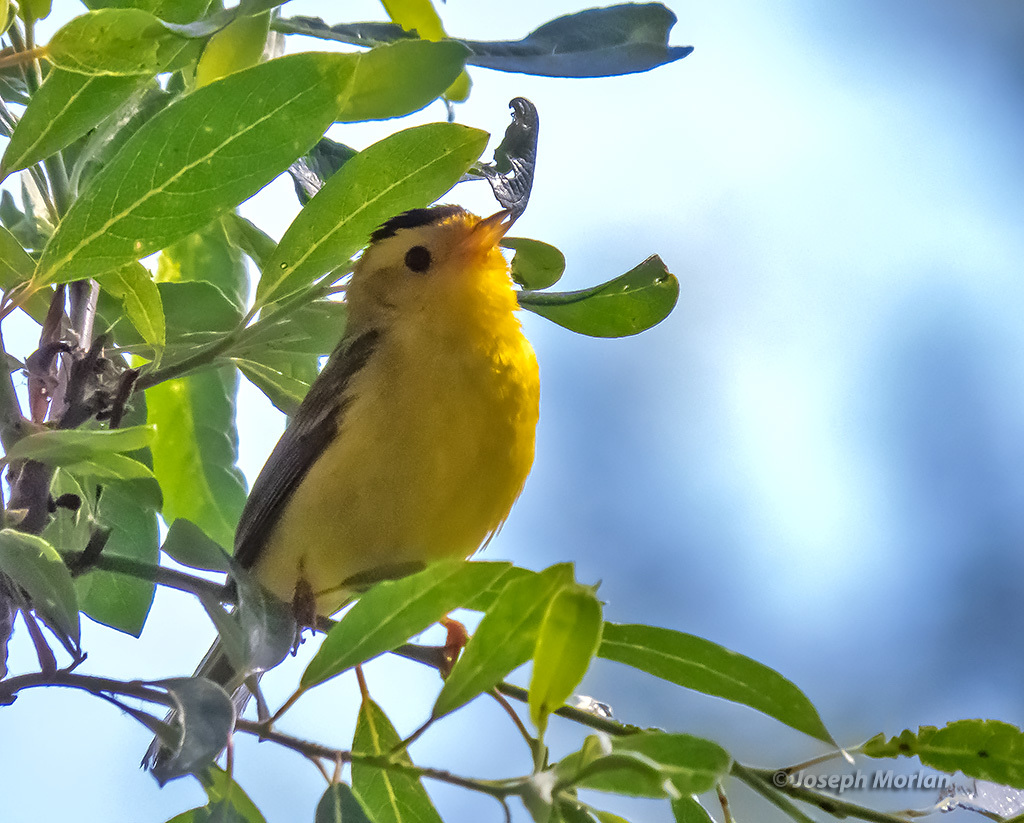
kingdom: Animalia
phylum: Chordata
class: Aves
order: Passeriformes
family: Parulidae
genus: Cardellina
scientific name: Cardellina pusilla
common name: Wilson's warbler
